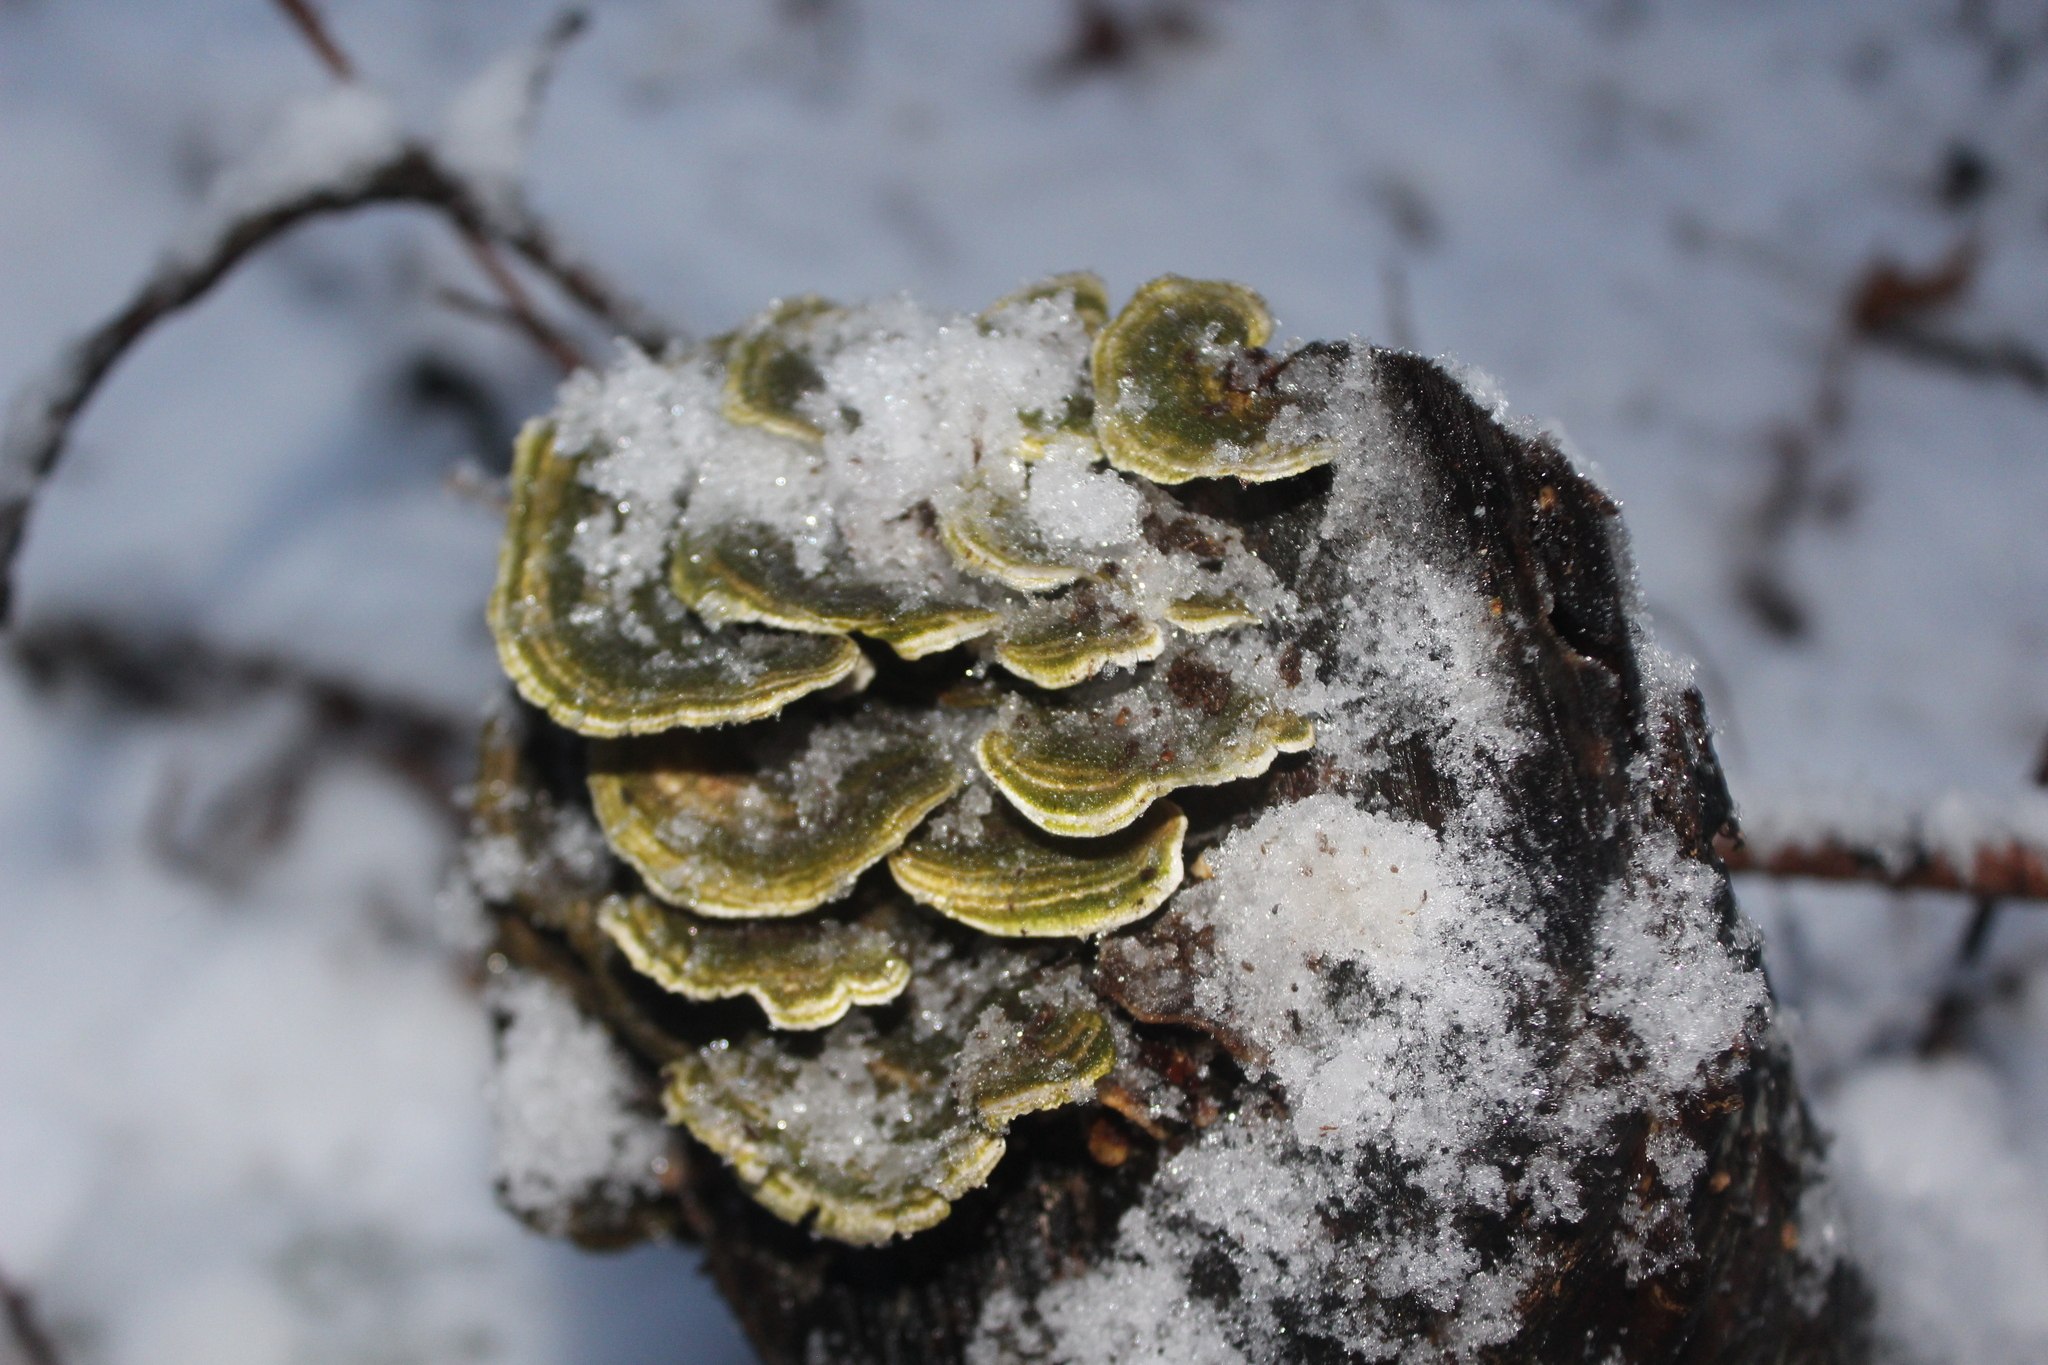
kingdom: Fungi
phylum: Basidiomycota
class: Agaricomycetes
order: Polyporales
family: Polyporaceae
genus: Trametes
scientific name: Trametes versicolor
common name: Turkeytail
